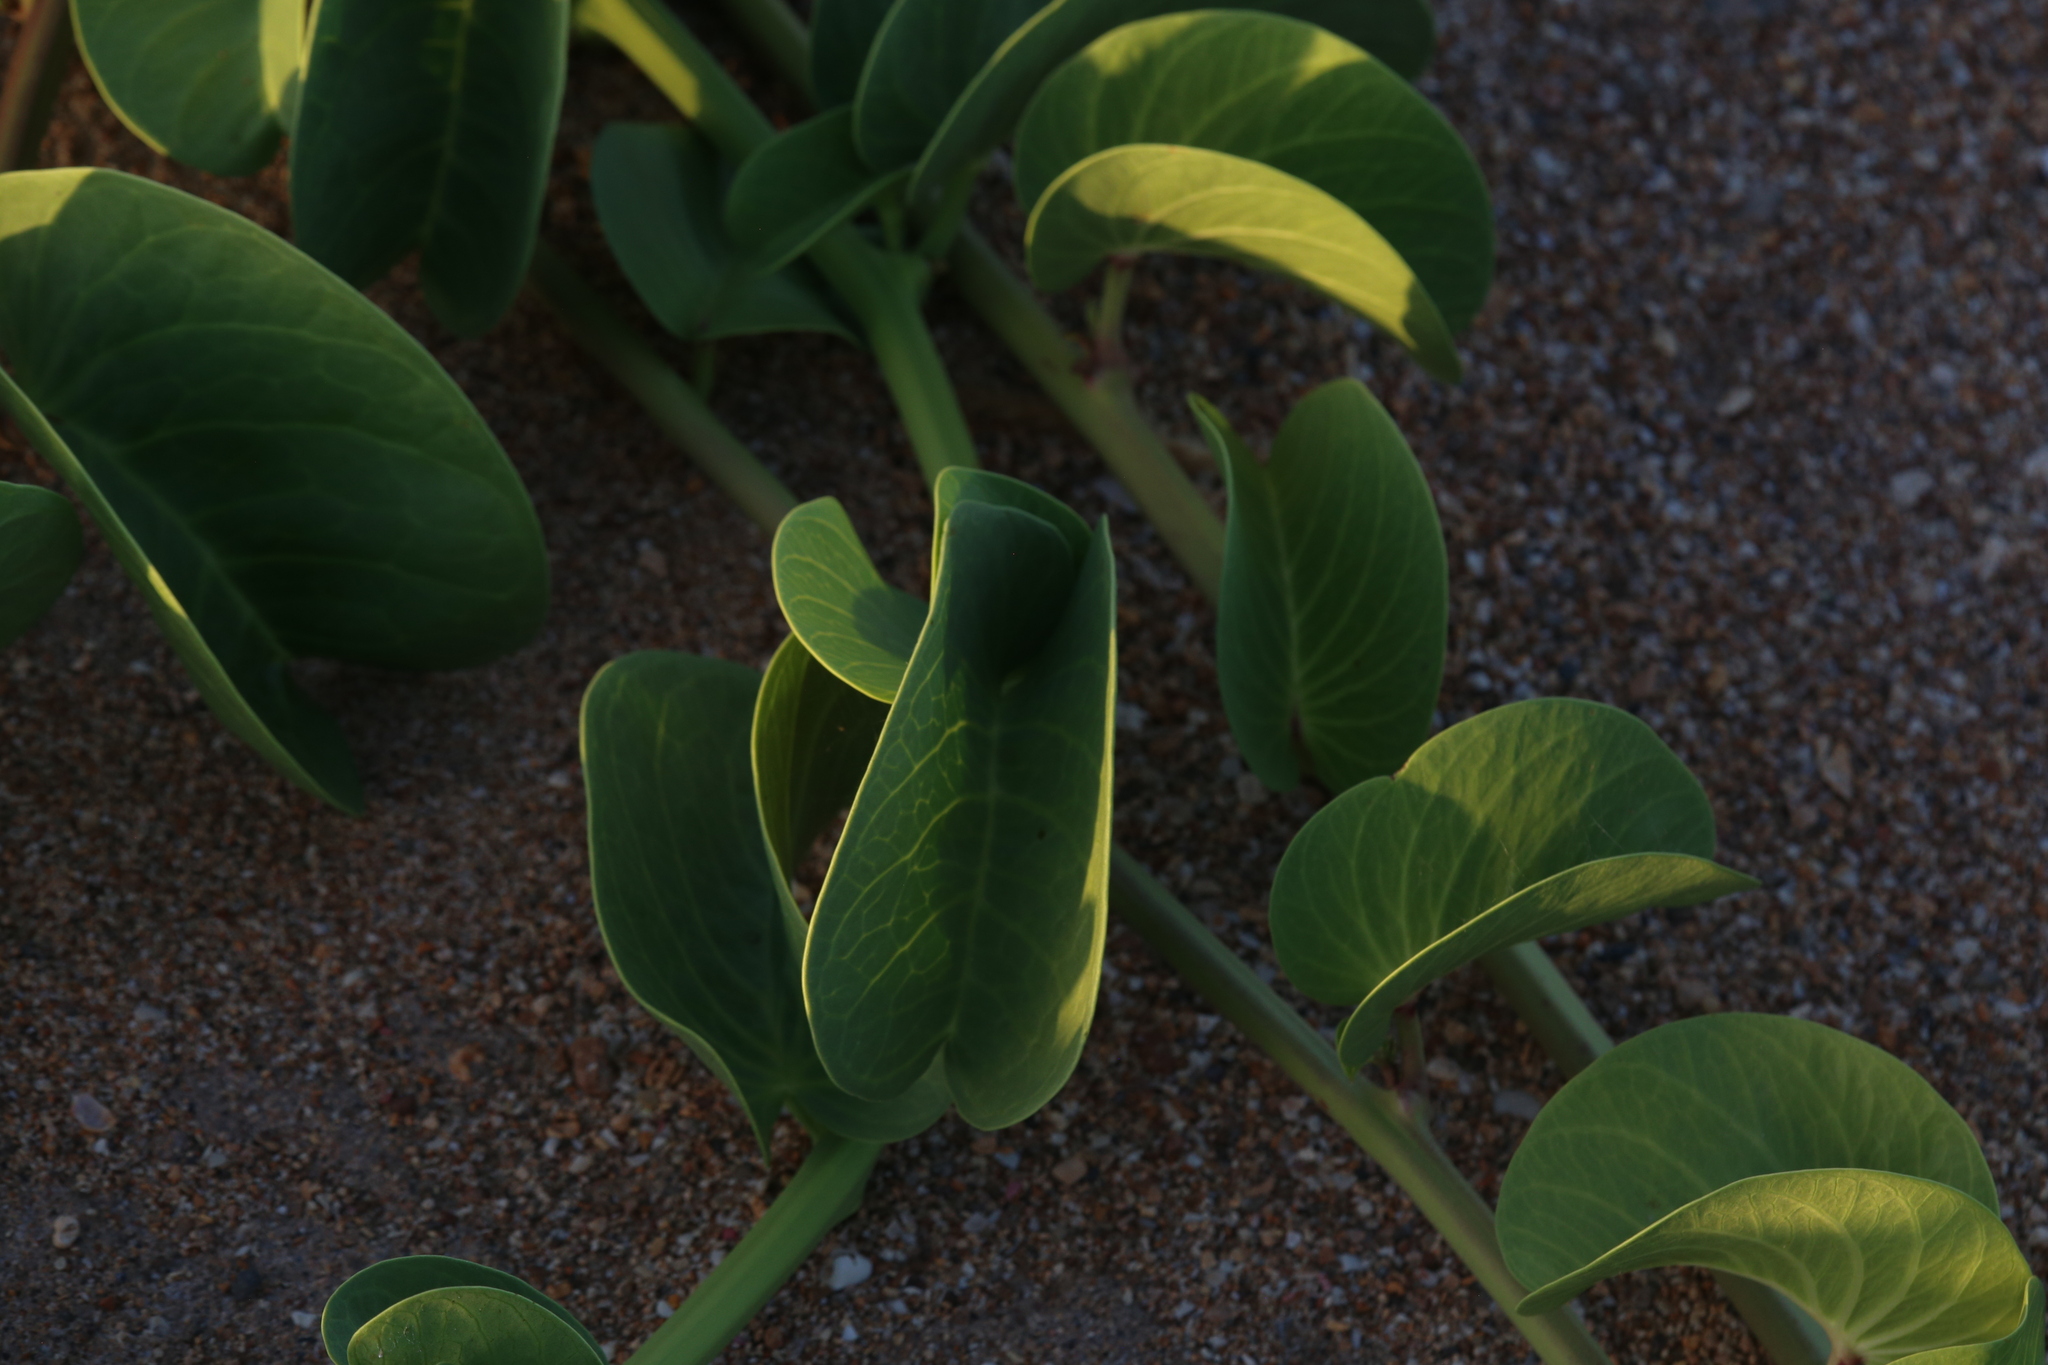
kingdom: Plantae
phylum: Tracheophyta
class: Magnoliopsida
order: Solanales
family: Convolvulaceae
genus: Ipomoea
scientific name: Ipomoea pes-caprae
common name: Beach morning glory
